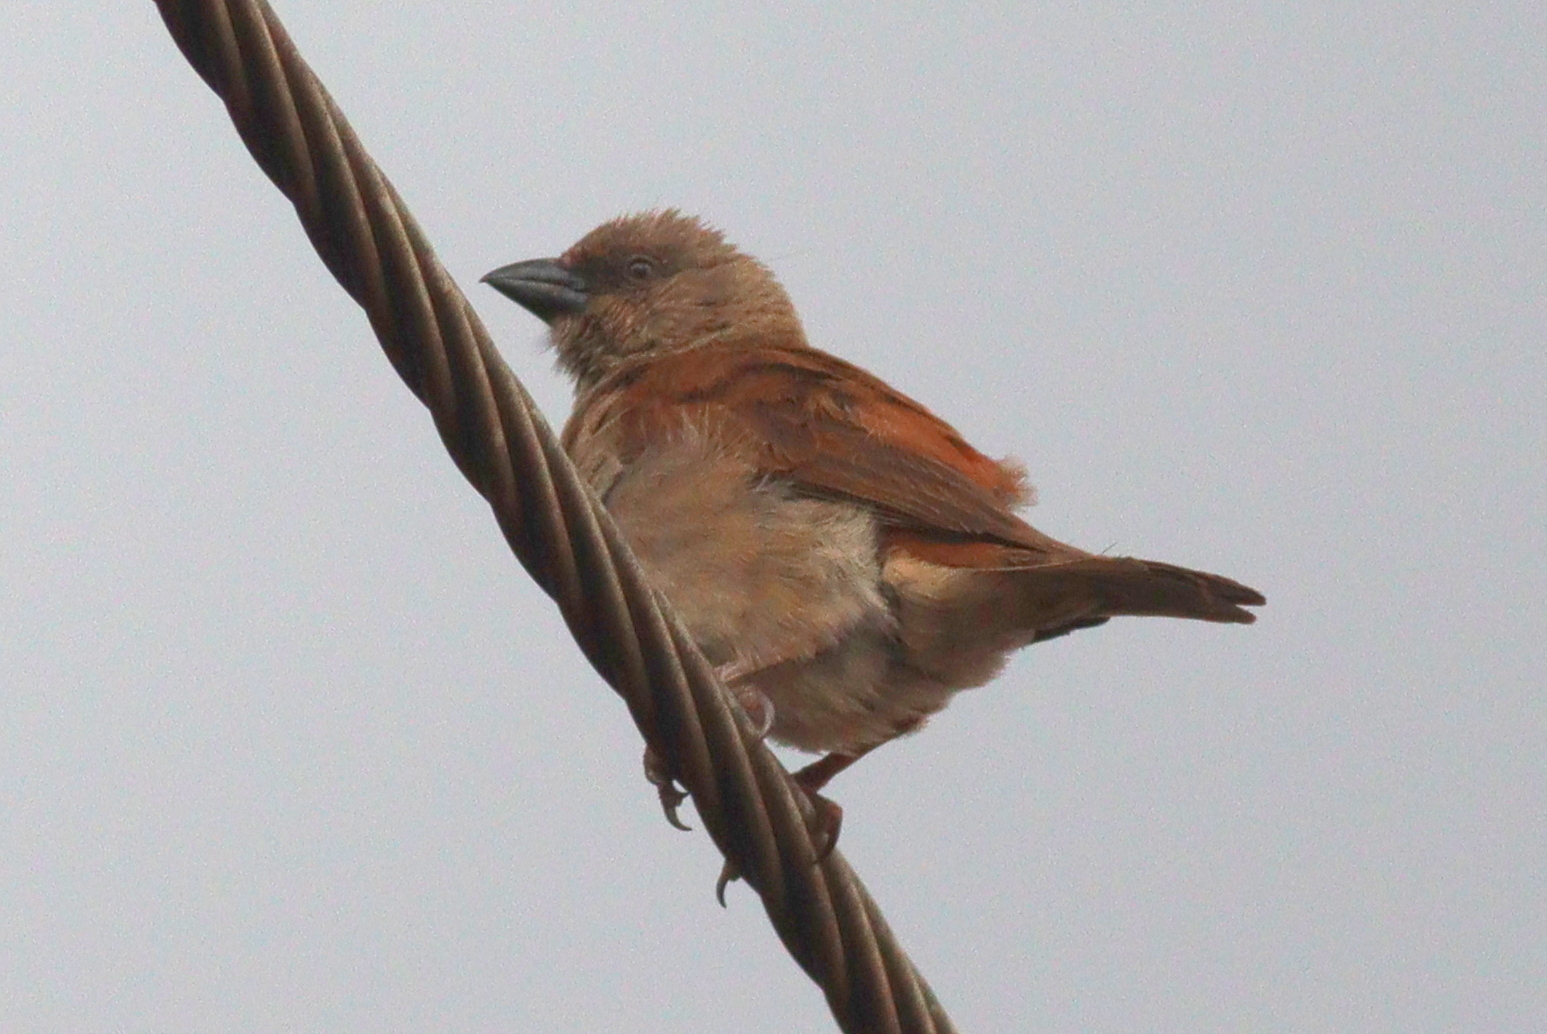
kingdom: Animalia
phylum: Chordata
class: Aves
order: Passeriformes
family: Passeridae
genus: Passer
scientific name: Passer griseus
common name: Northern grey-headed sparrow
